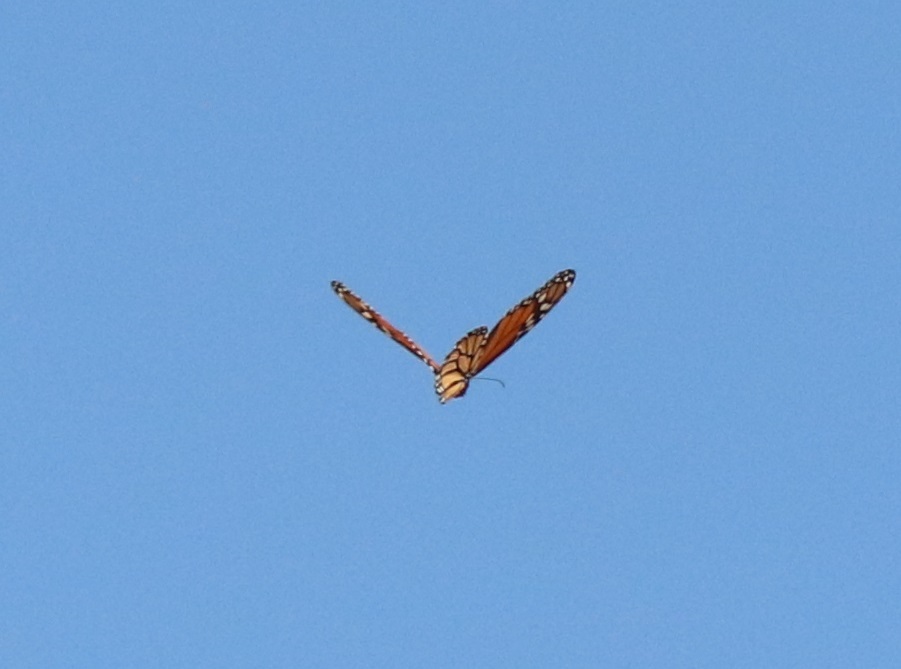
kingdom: Animalia
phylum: Arthropoda
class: Insecta
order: Lepidoptera
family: Nymphalidae
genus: Danaus
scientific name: Danaus plexippus
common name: Monarch
